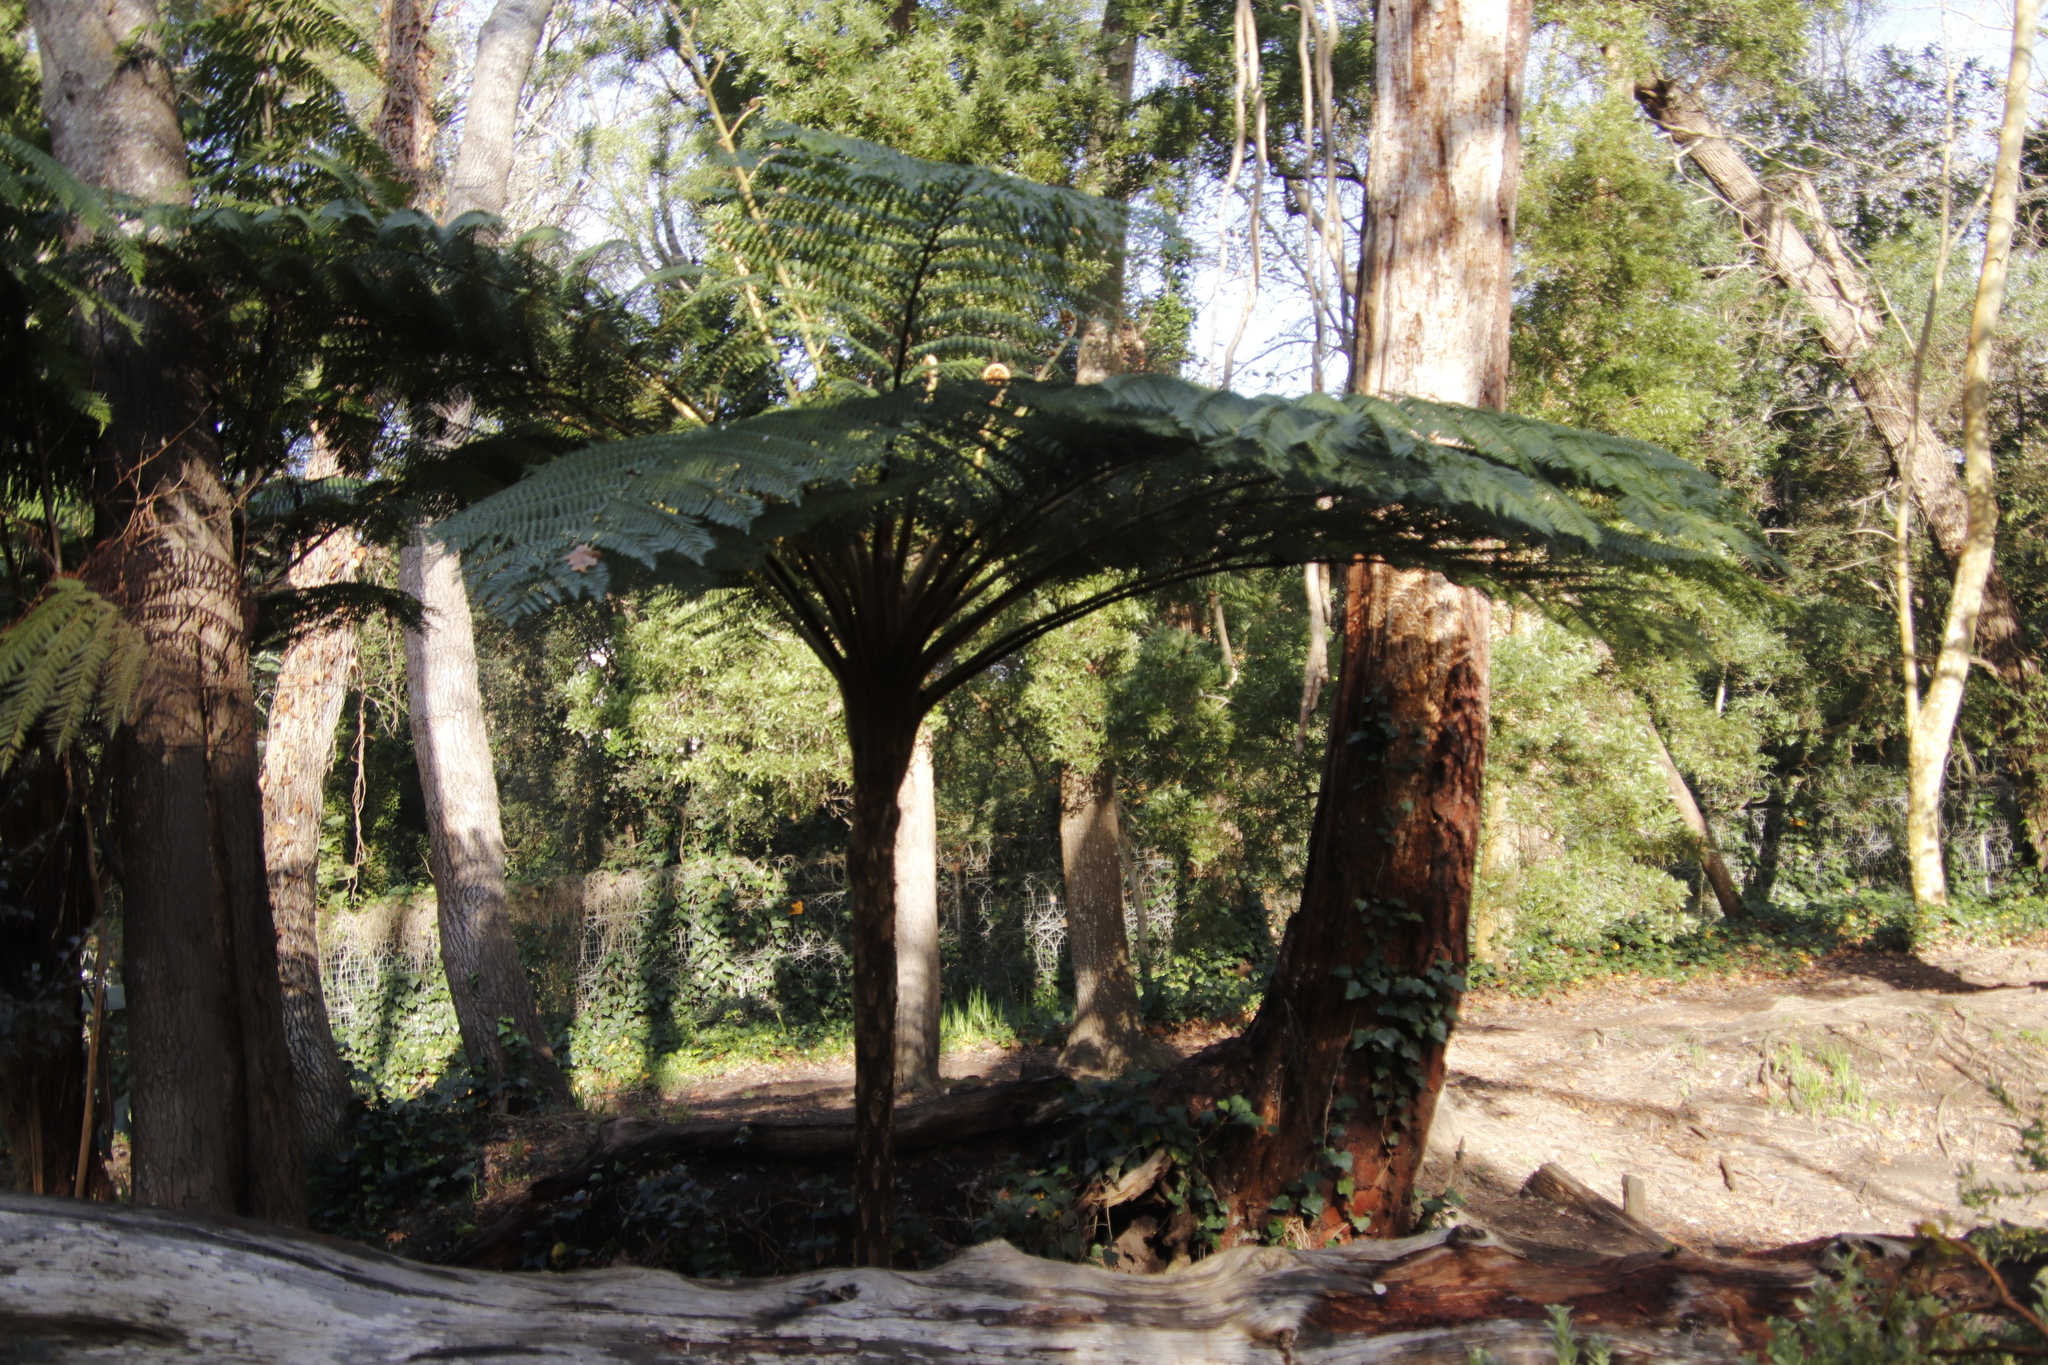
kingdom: Plantae
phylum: Tracheophyta
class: Polypodiopsida
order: Cyatheales
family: Cyatheaceae
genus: Sphaeropteris
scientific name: Sphaeropteris cooperi
